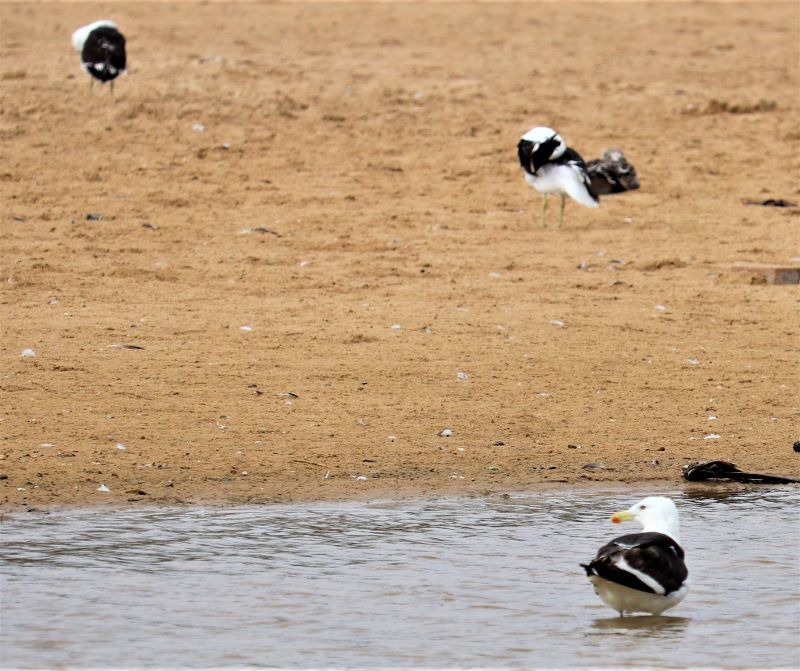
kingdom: Animalia
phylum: Chordata
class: Aves
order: Charadriiformes
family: Laridae
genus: Larus
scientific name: Larus dominicanus
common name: Kelp gull
